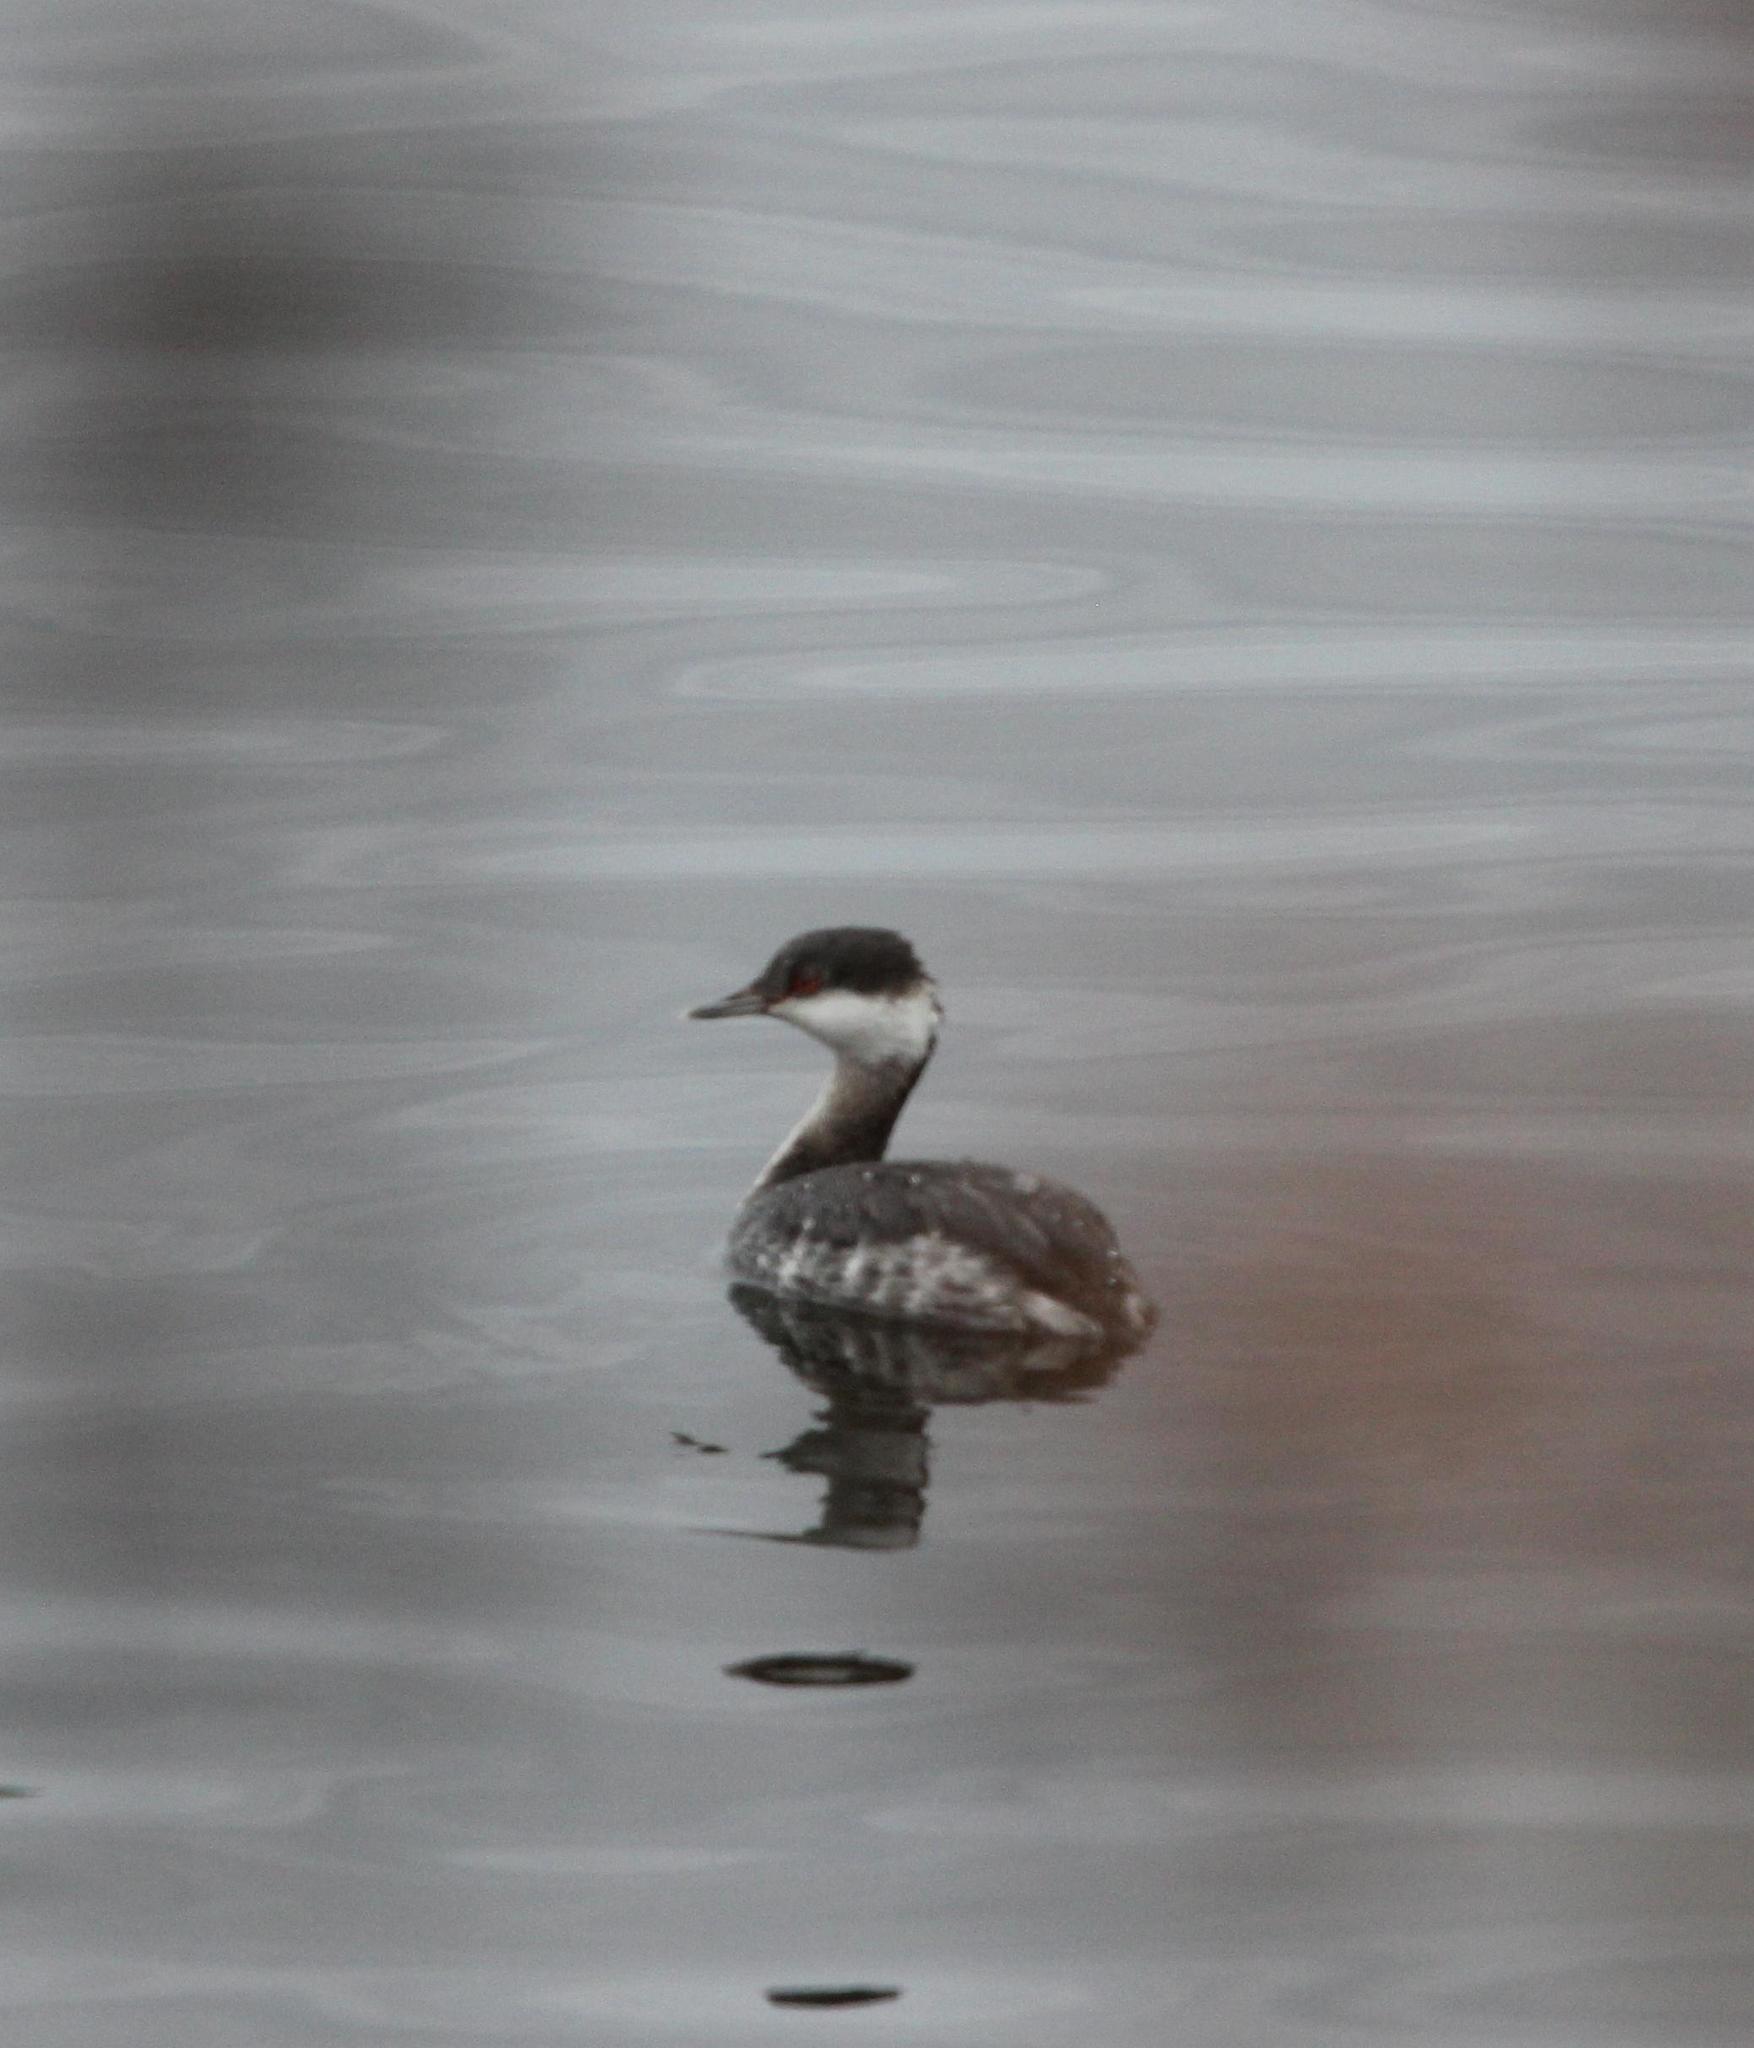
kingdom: Animalia
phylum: Chordata
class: Aves
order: Podicipediformes
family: Podicipedidae
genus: Podiceps
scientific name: Podiceps auritus
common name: Horned grebe
